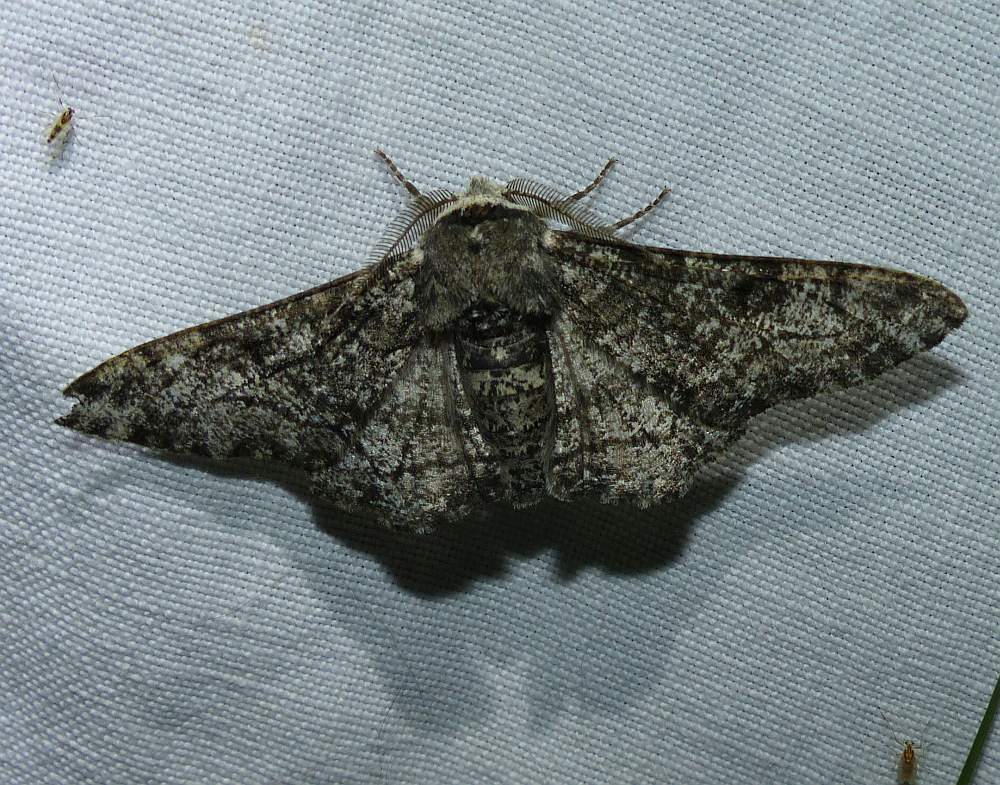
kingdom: Animalia
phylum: Arthropoda
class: Insecta
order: Lepidoptera
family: Geometridae
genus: Biston
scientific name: Biston betularia
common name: Peppered moth
